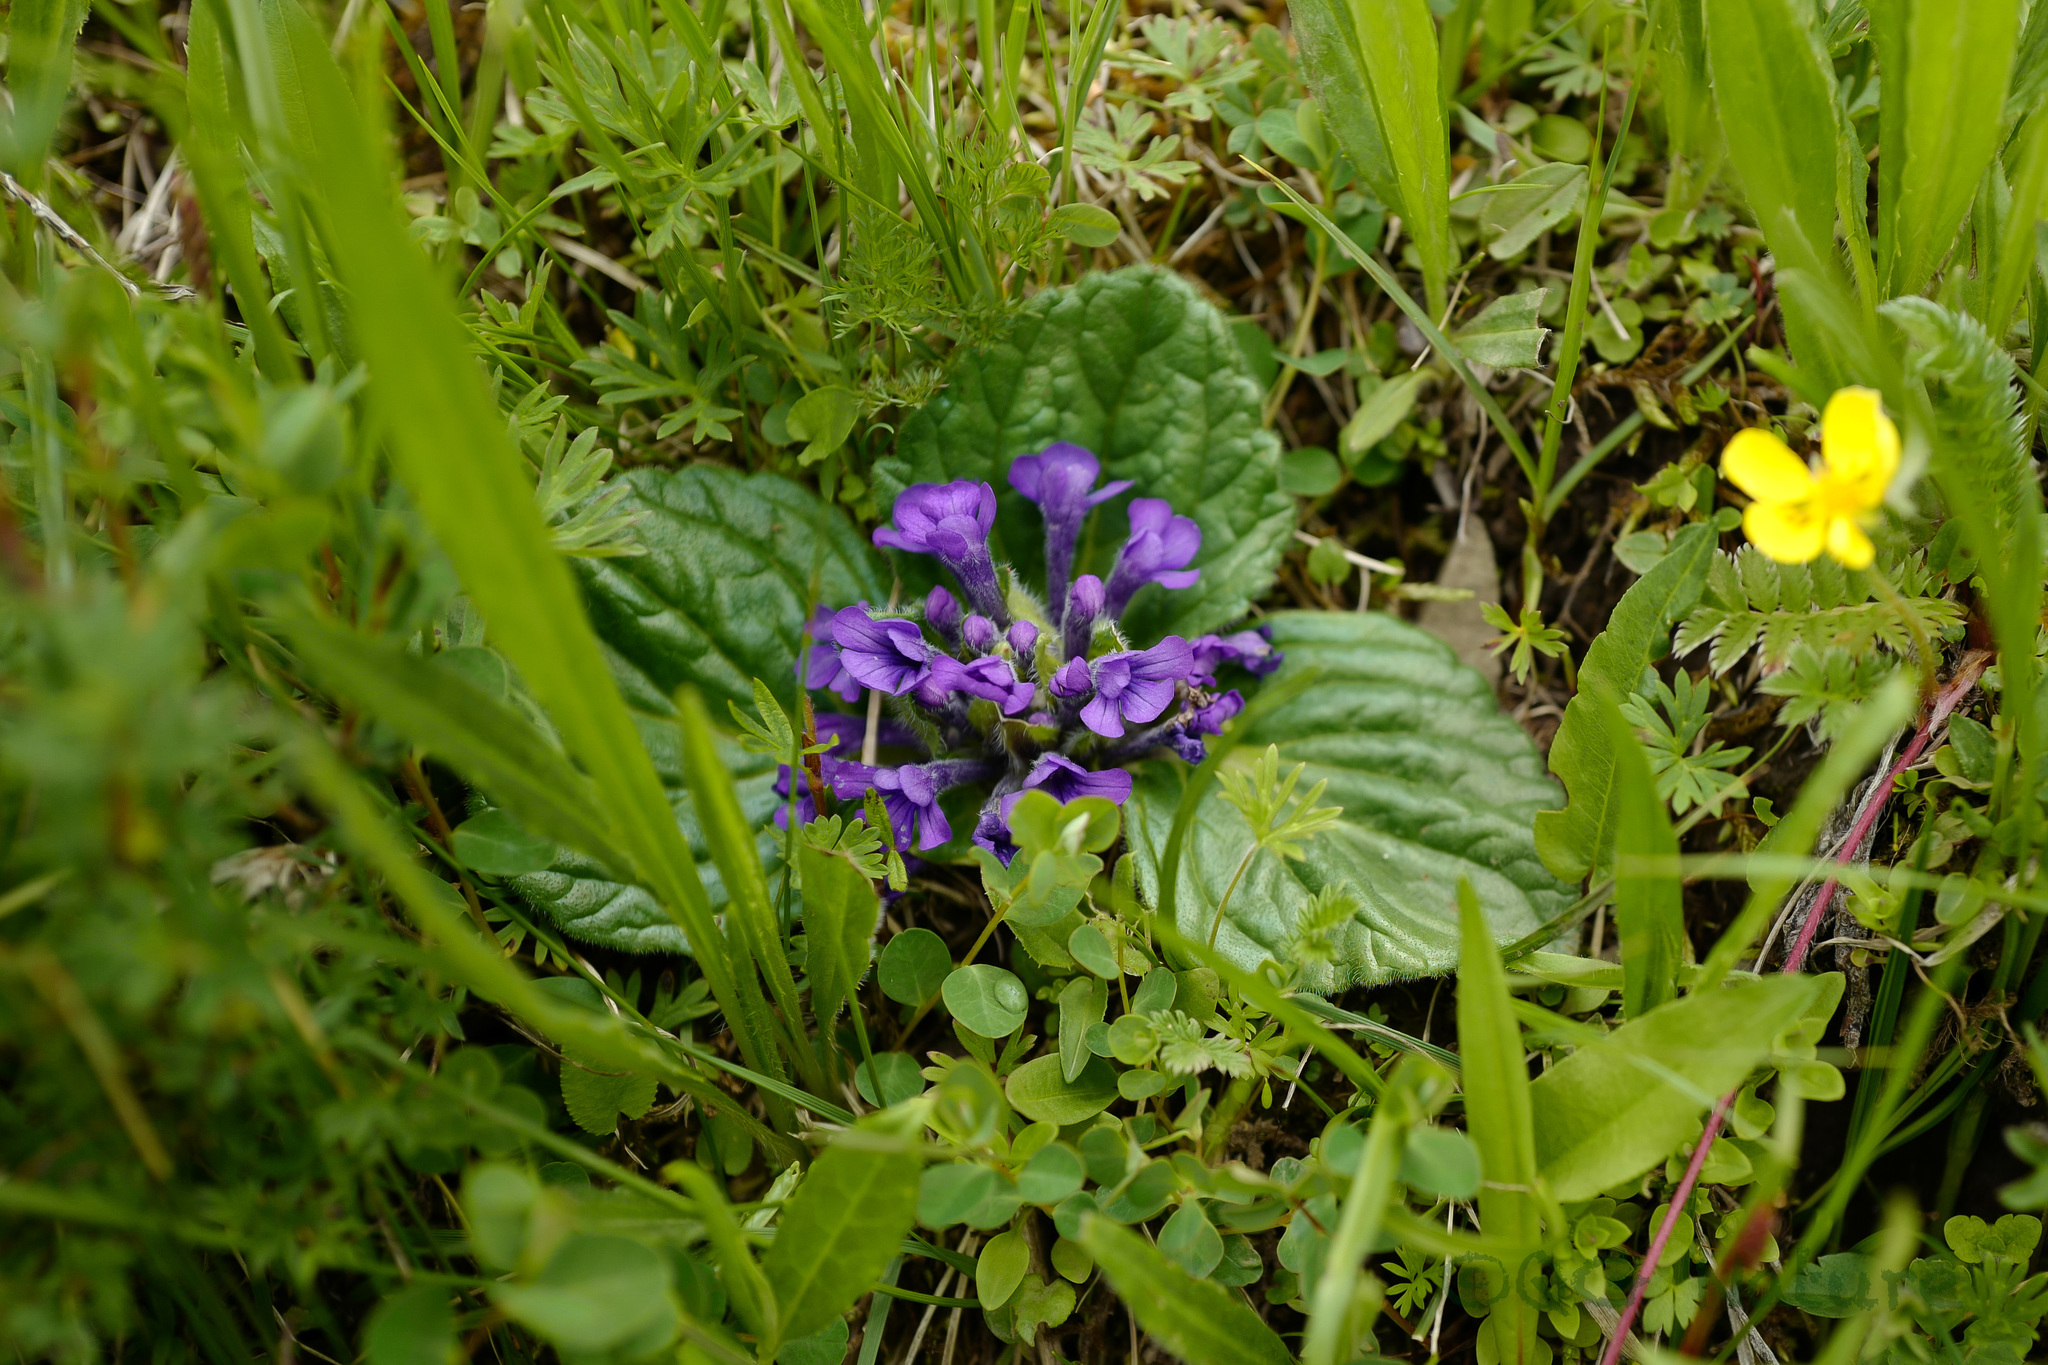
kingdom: Plantae
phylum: Tracheophyta
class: Magnoliopsida
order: Lamiales
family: Lamiaceae
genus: Ajuga
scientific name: Ajuga ovalifolia
